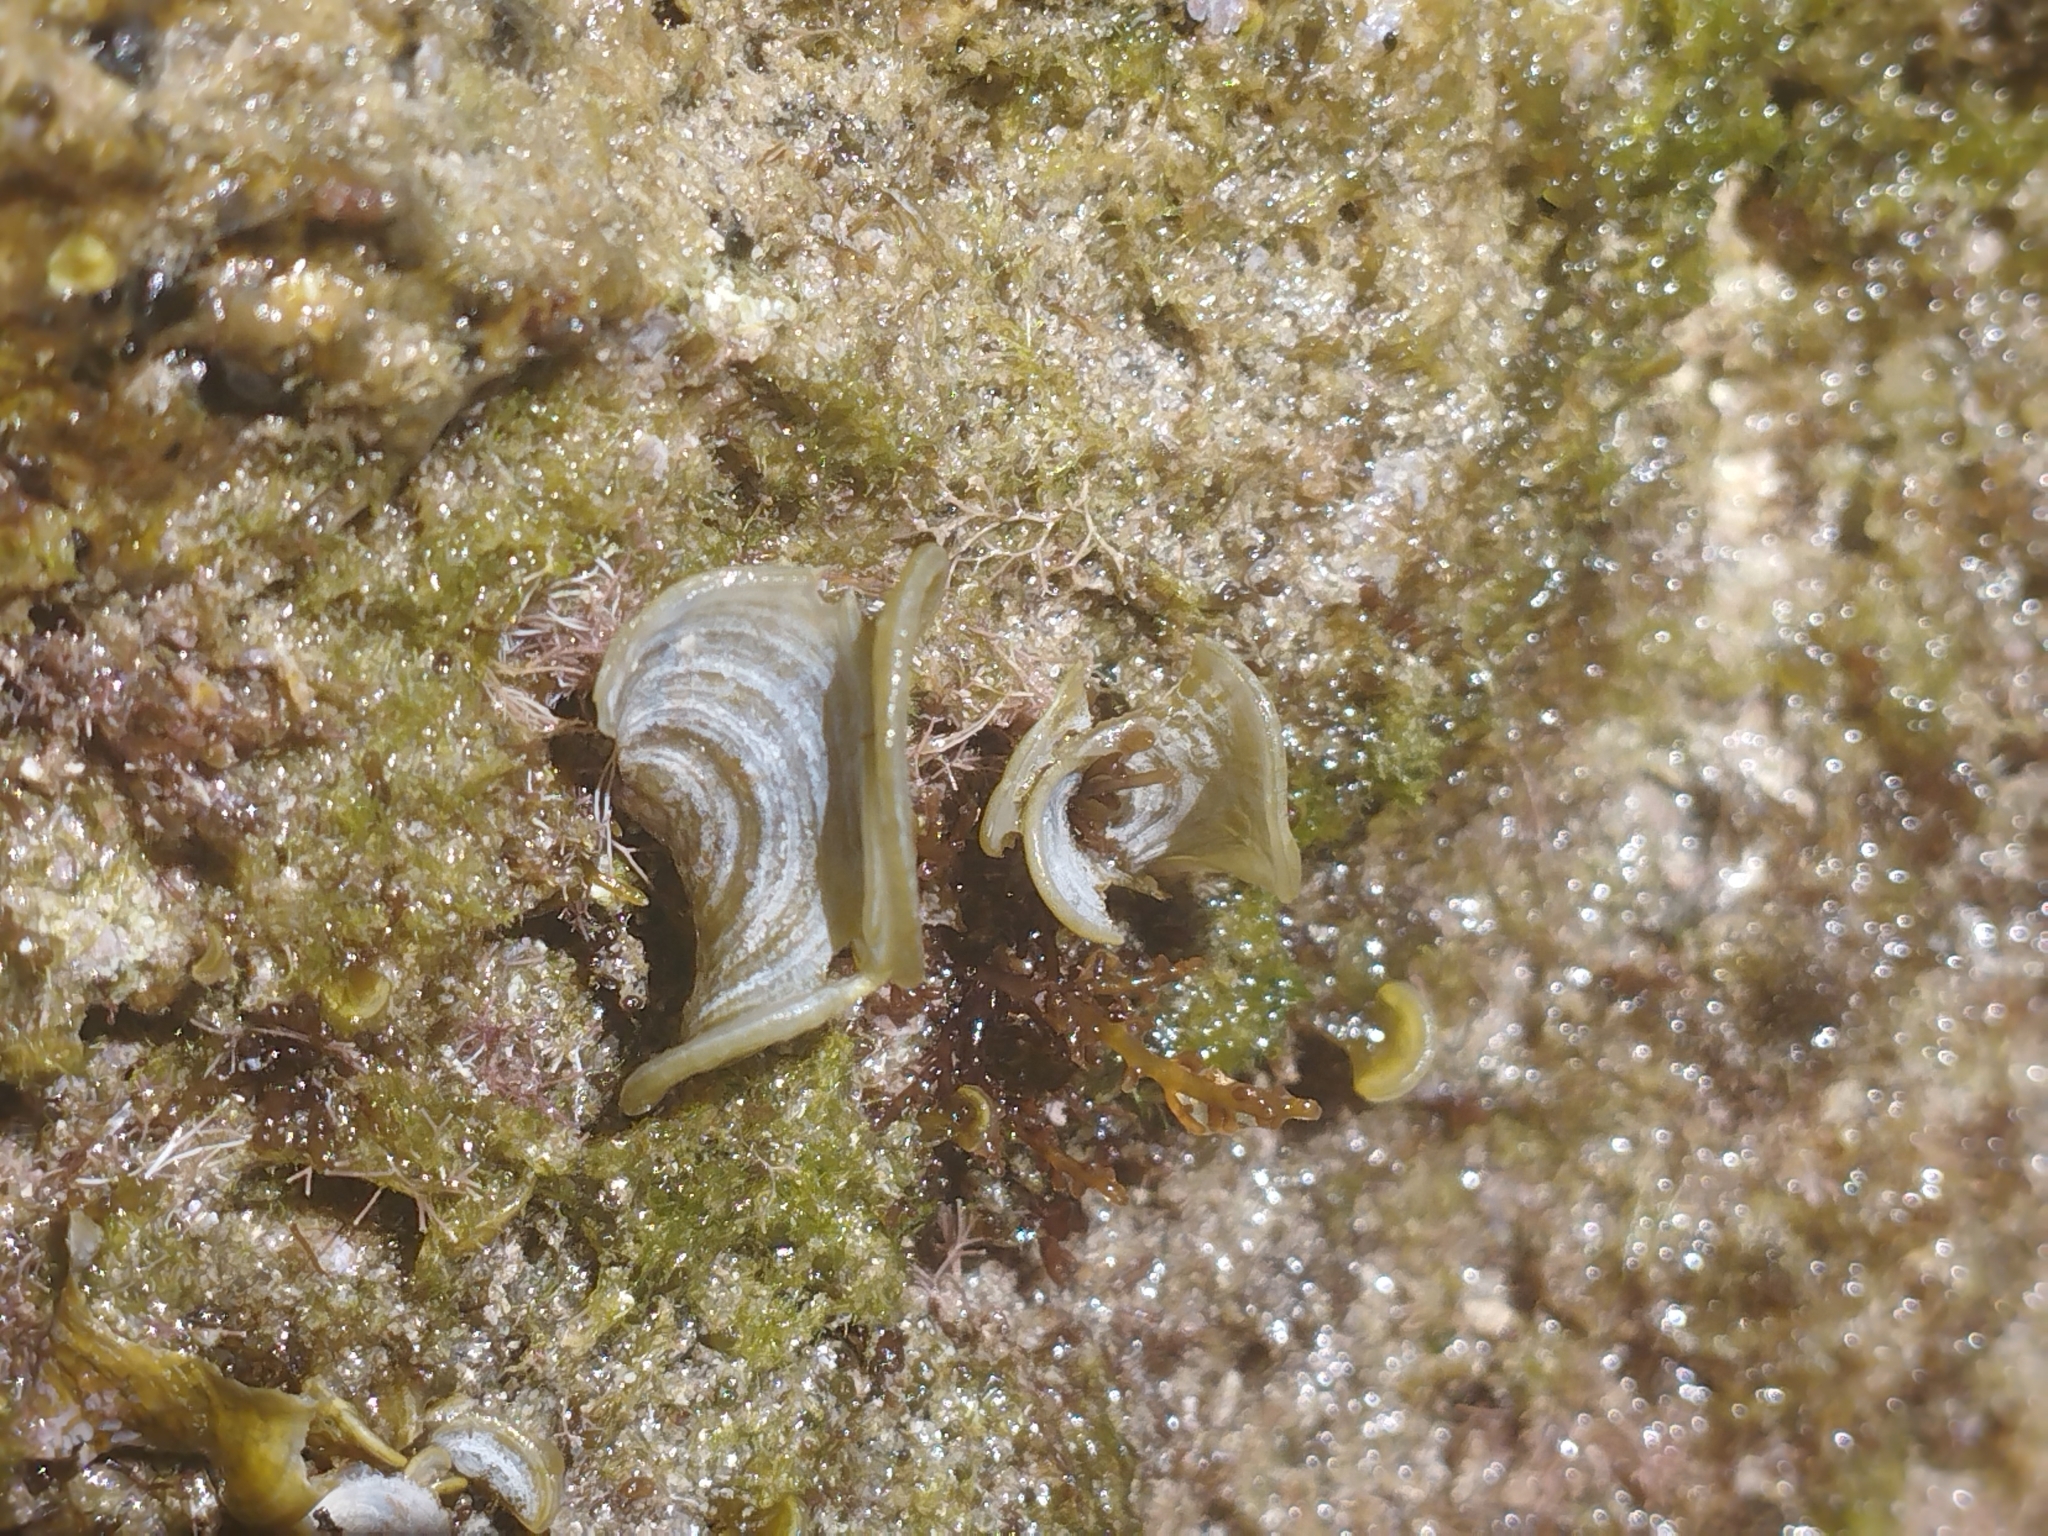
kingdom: Chromista
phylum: Ochrophyta
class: Phaeophyceae
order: Dictyotales
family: Dictyotaceae
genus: Padina
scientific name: Padina
